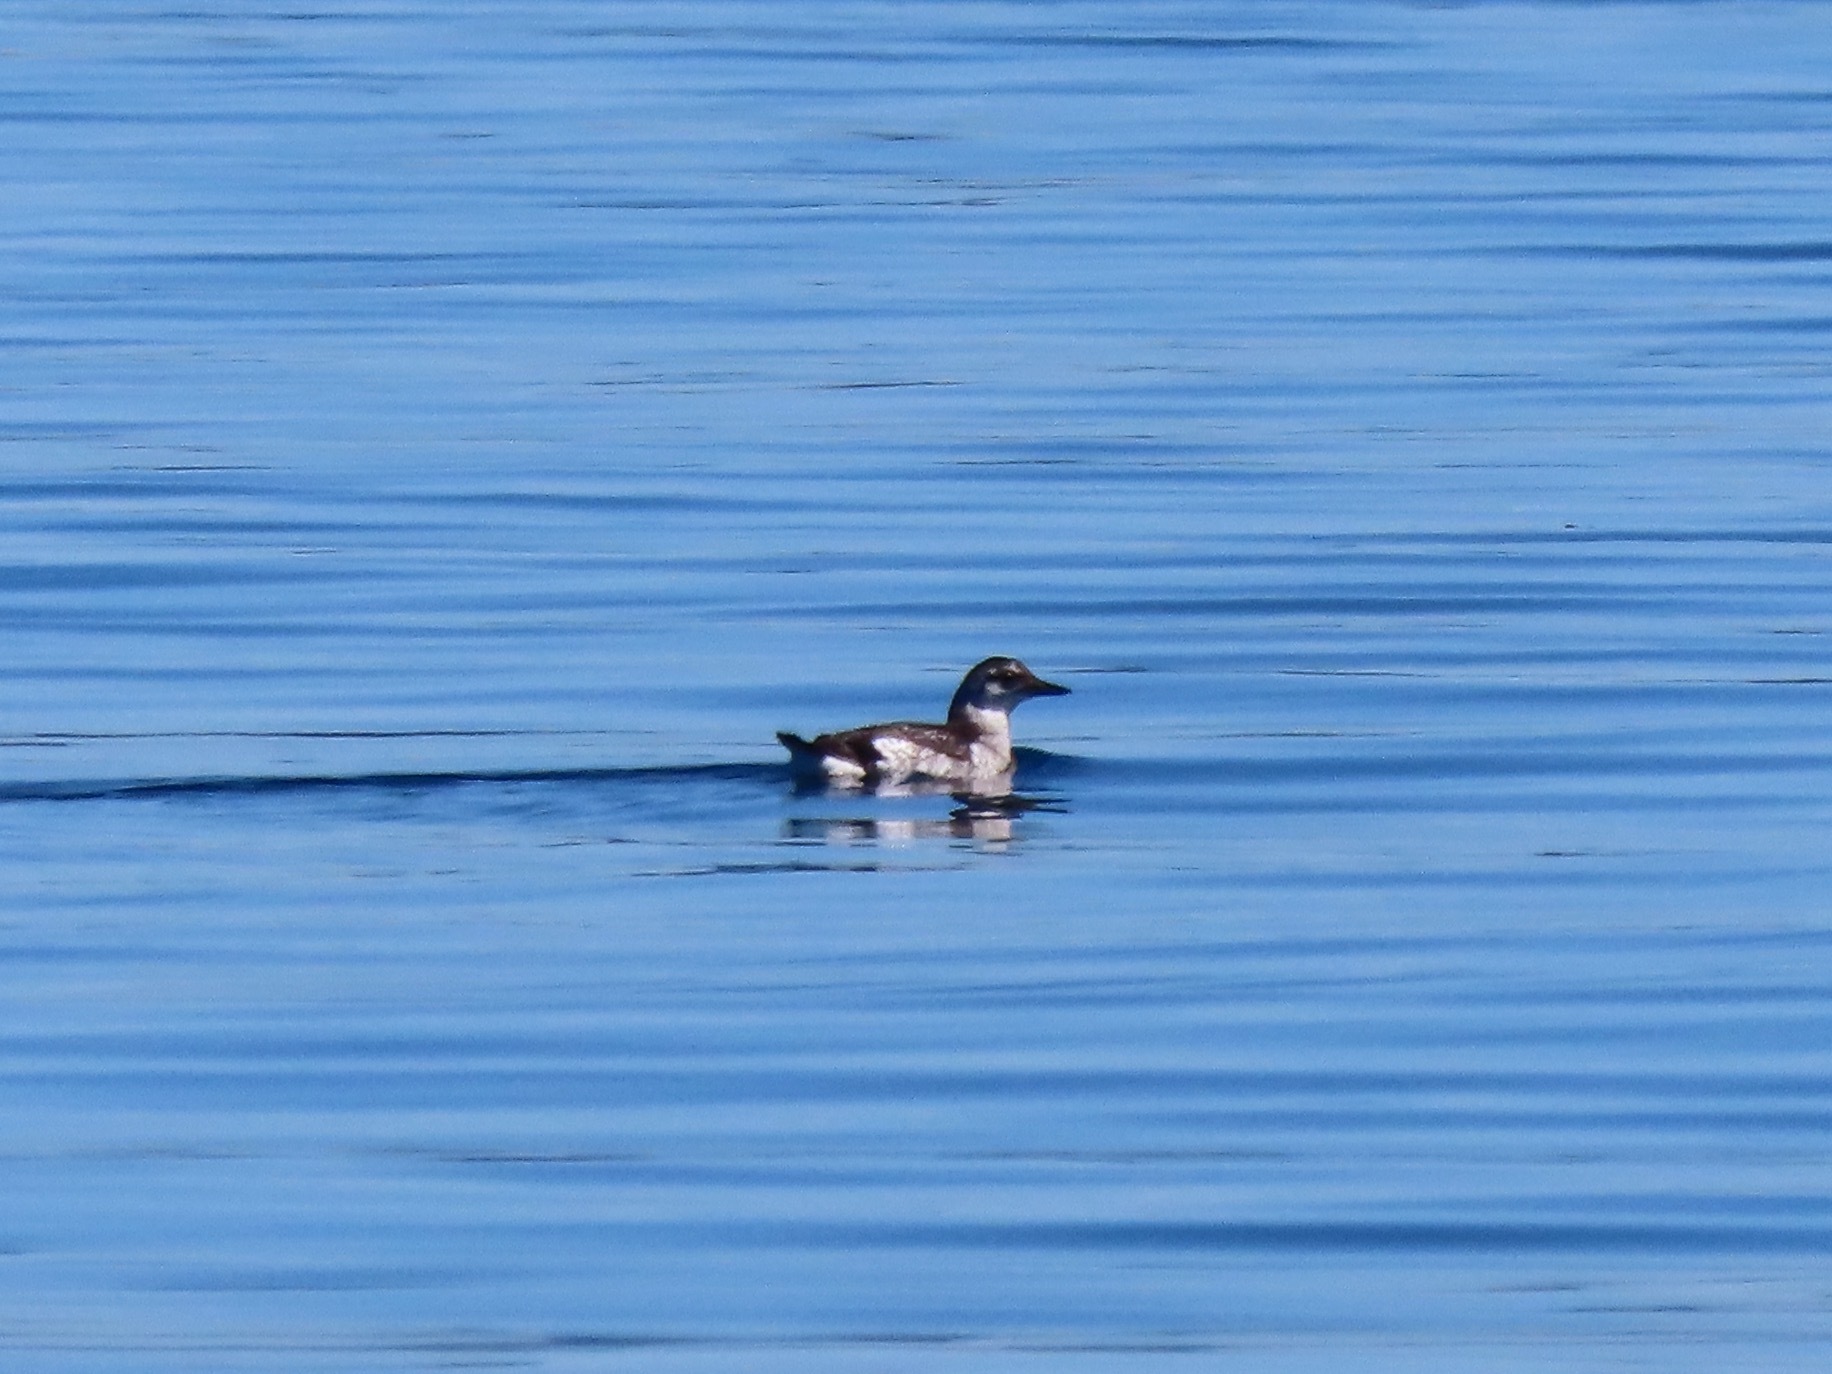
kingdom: Animalia
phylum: Chordata
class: Aves
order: Charadriiformes
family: Alcidae
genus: Cepphus
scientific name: Cepphus columba
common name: Pigeon guillemot
